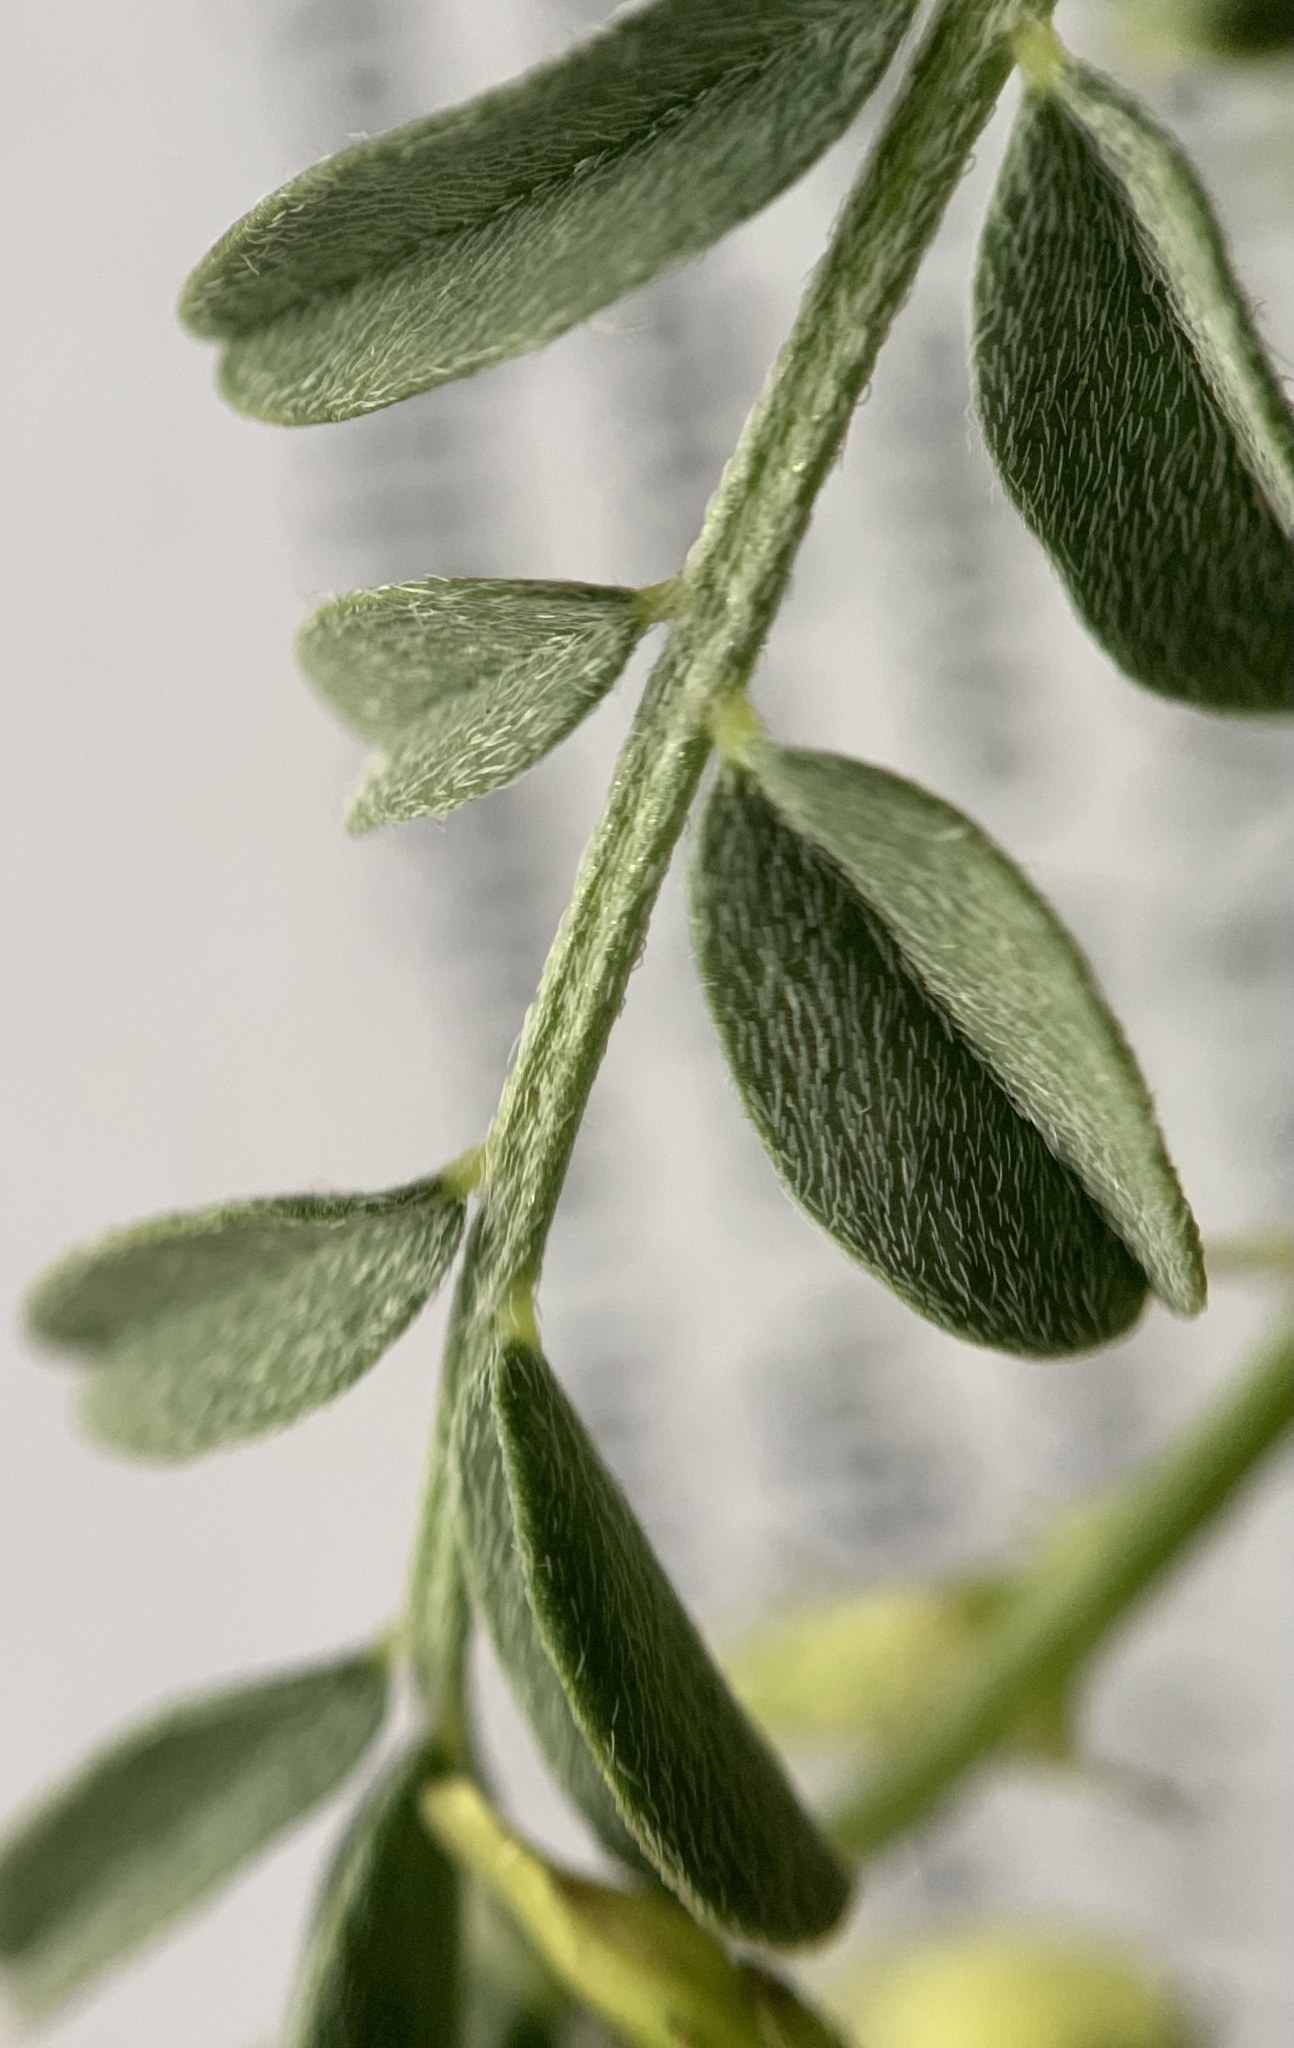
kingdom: Plantae
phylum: Tracheophyta
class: Magnoliopsida
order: Fabales
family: Fabaceae
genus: Astragalus
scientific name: Astragalus lentiginosus
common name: Freckled milkvetch
